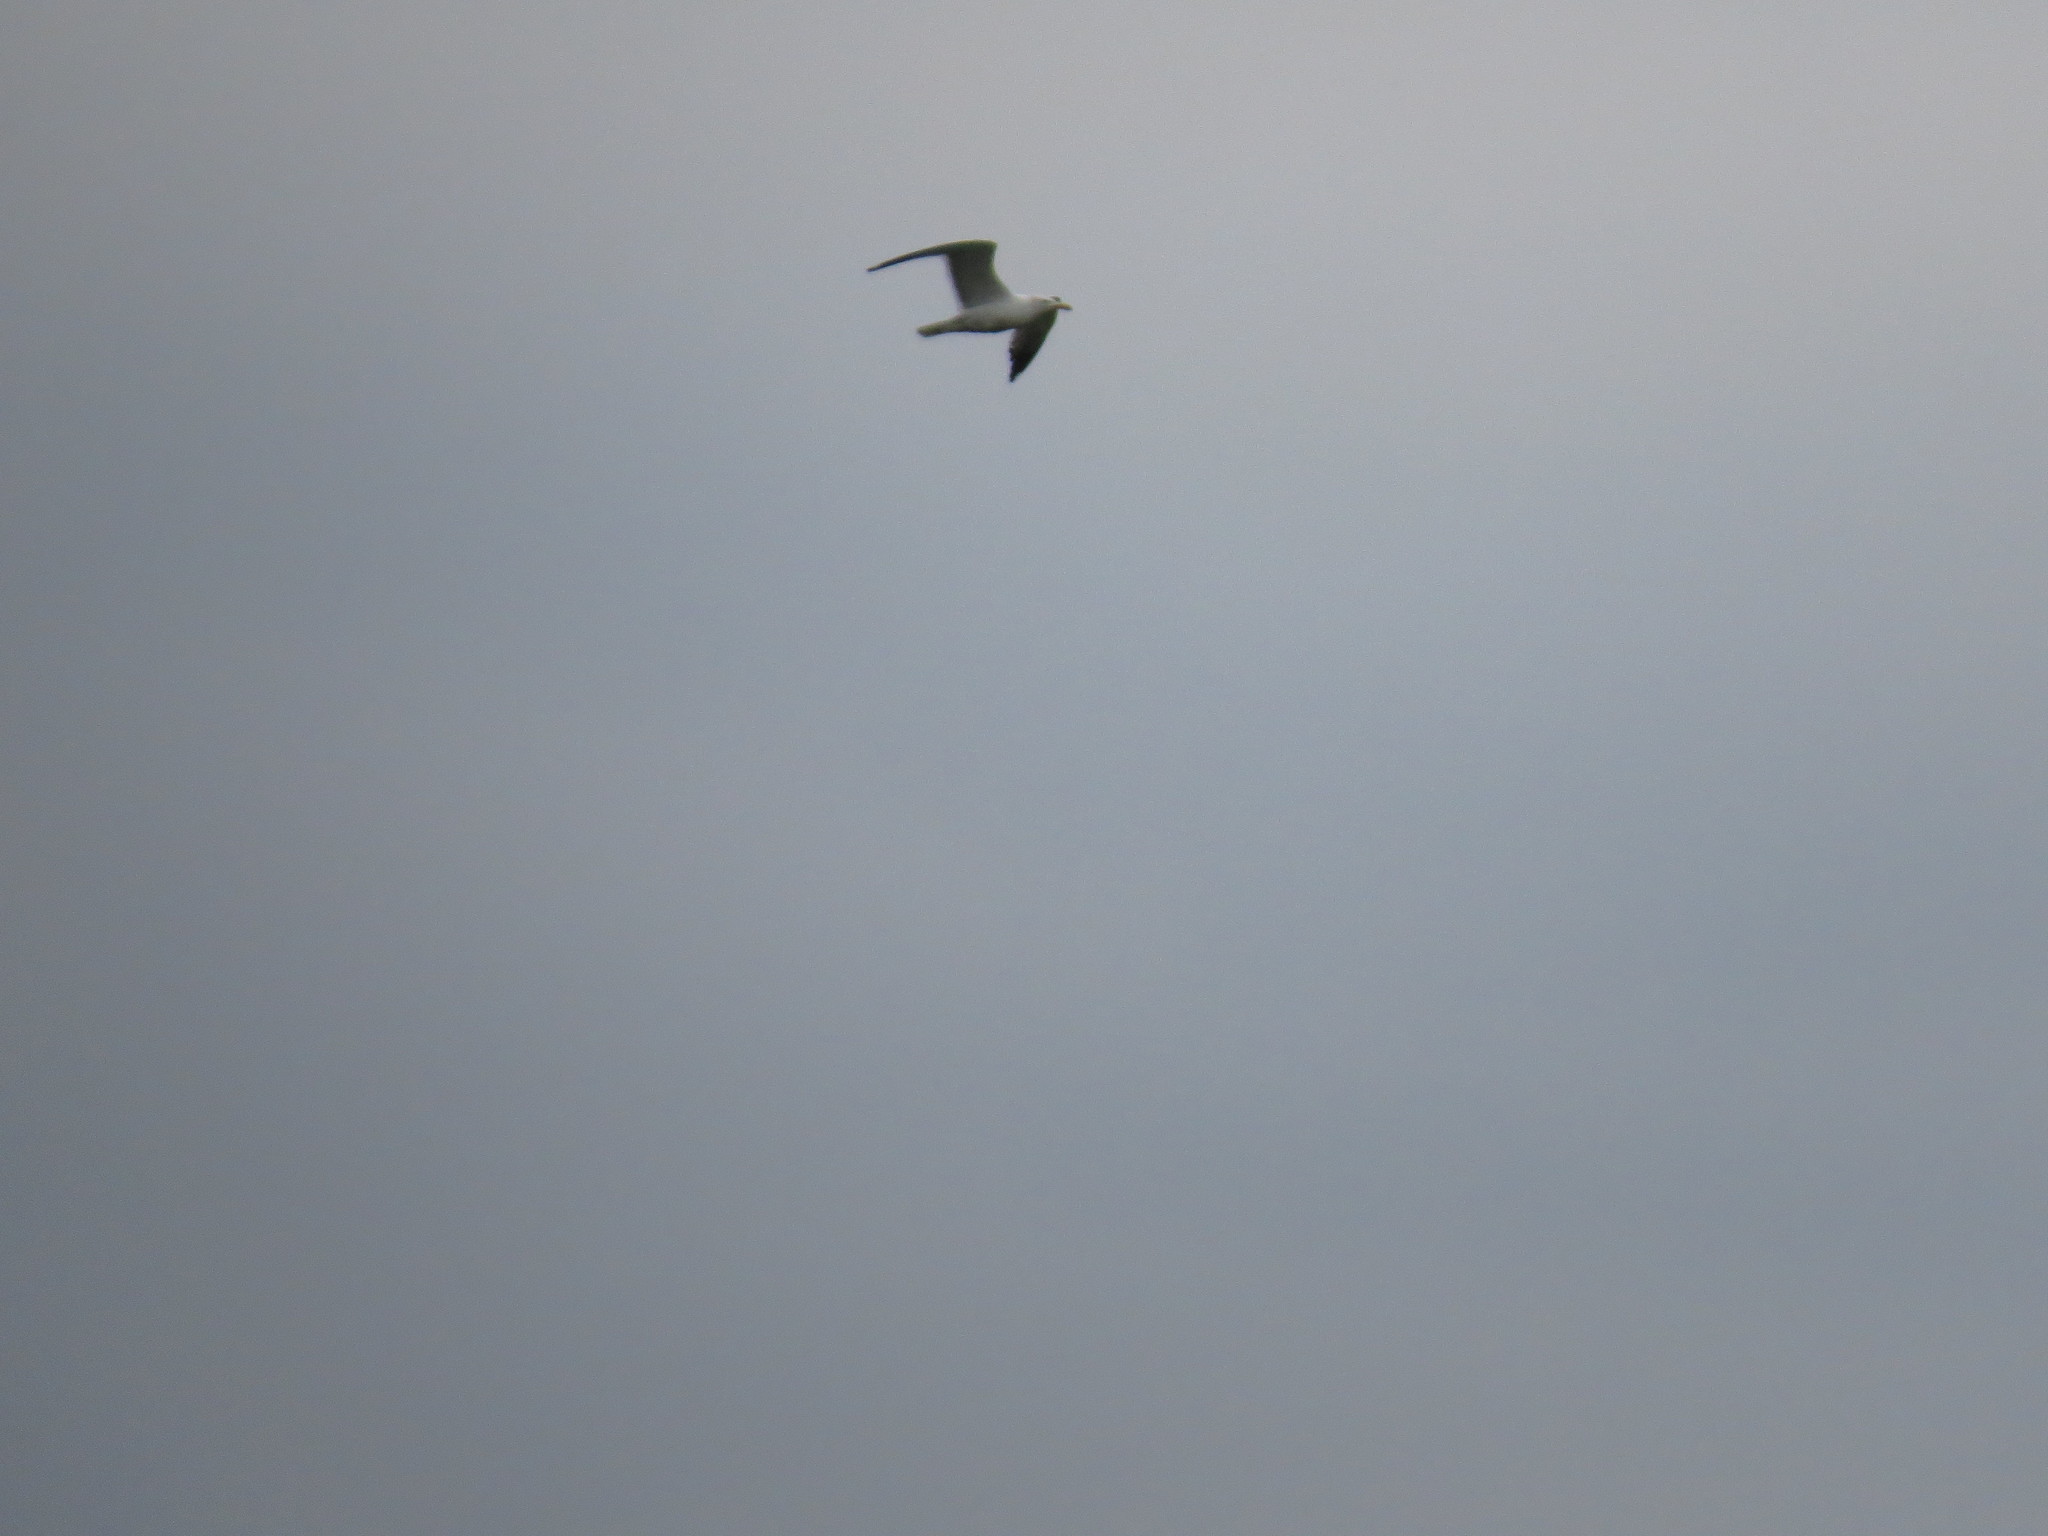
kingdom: Animalia
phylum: Chordata
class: Aves
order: Charadriiformes
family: Laridae
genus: Larus
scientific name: Larus fuscus
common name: Lesser black-backed gull
